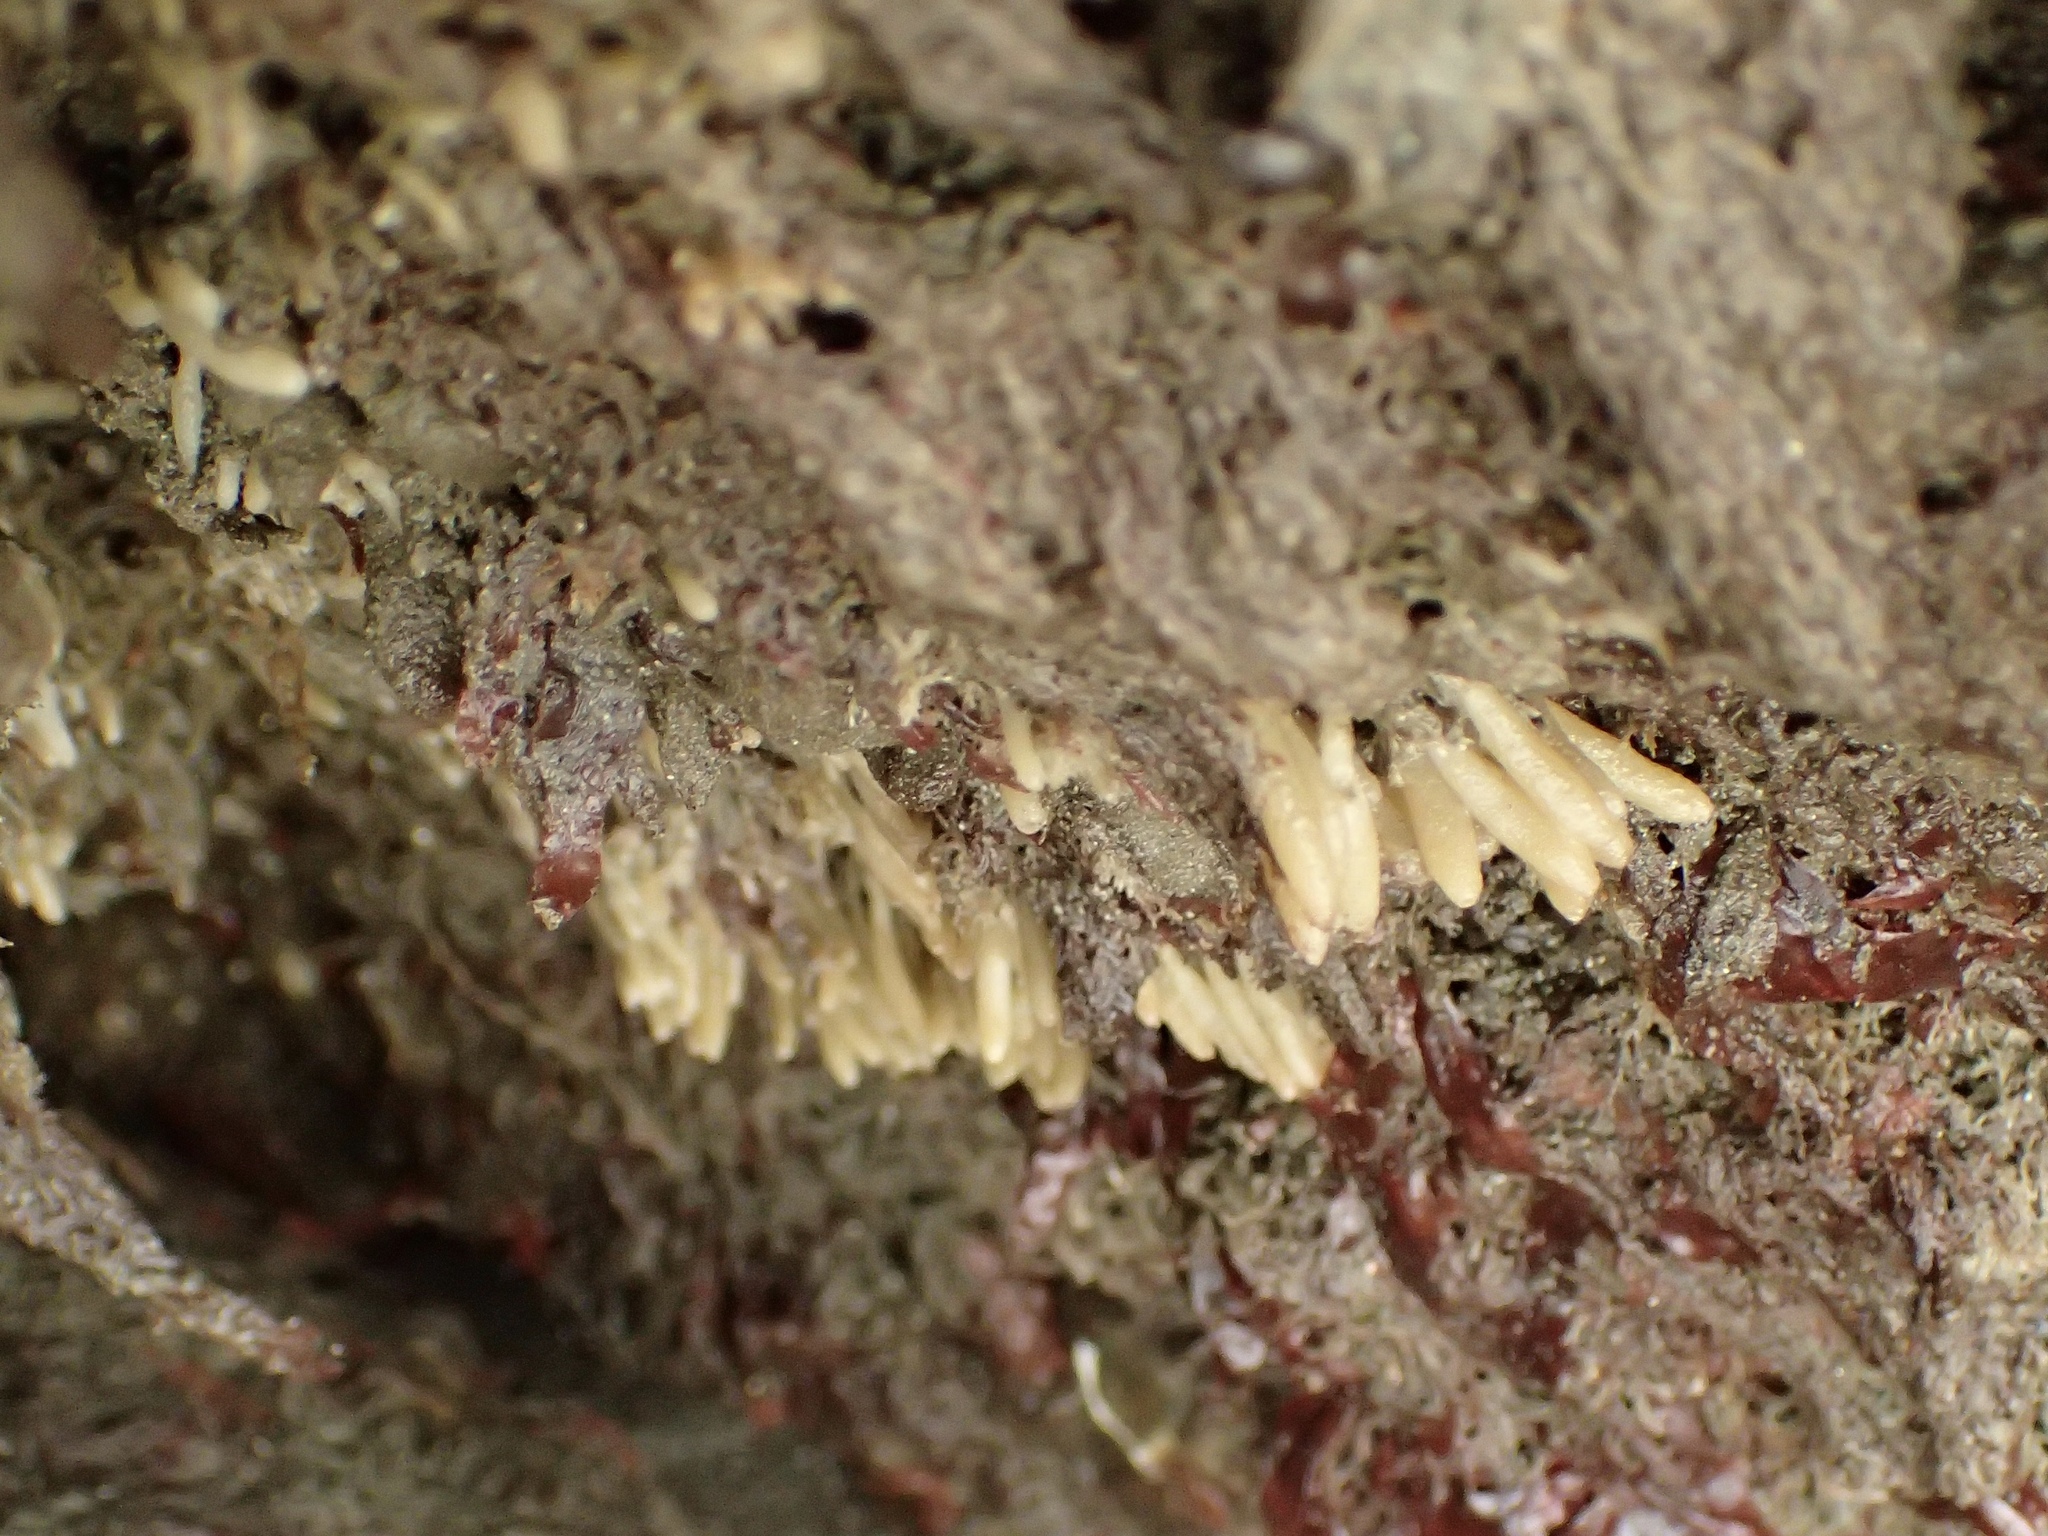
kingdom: Animalia
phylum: Porifera
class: Calcarea
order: Leucosolenida
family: Amphoriscidae
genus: Leucilla
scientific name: Leucilla nuttingi
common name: Nutting's sponge
